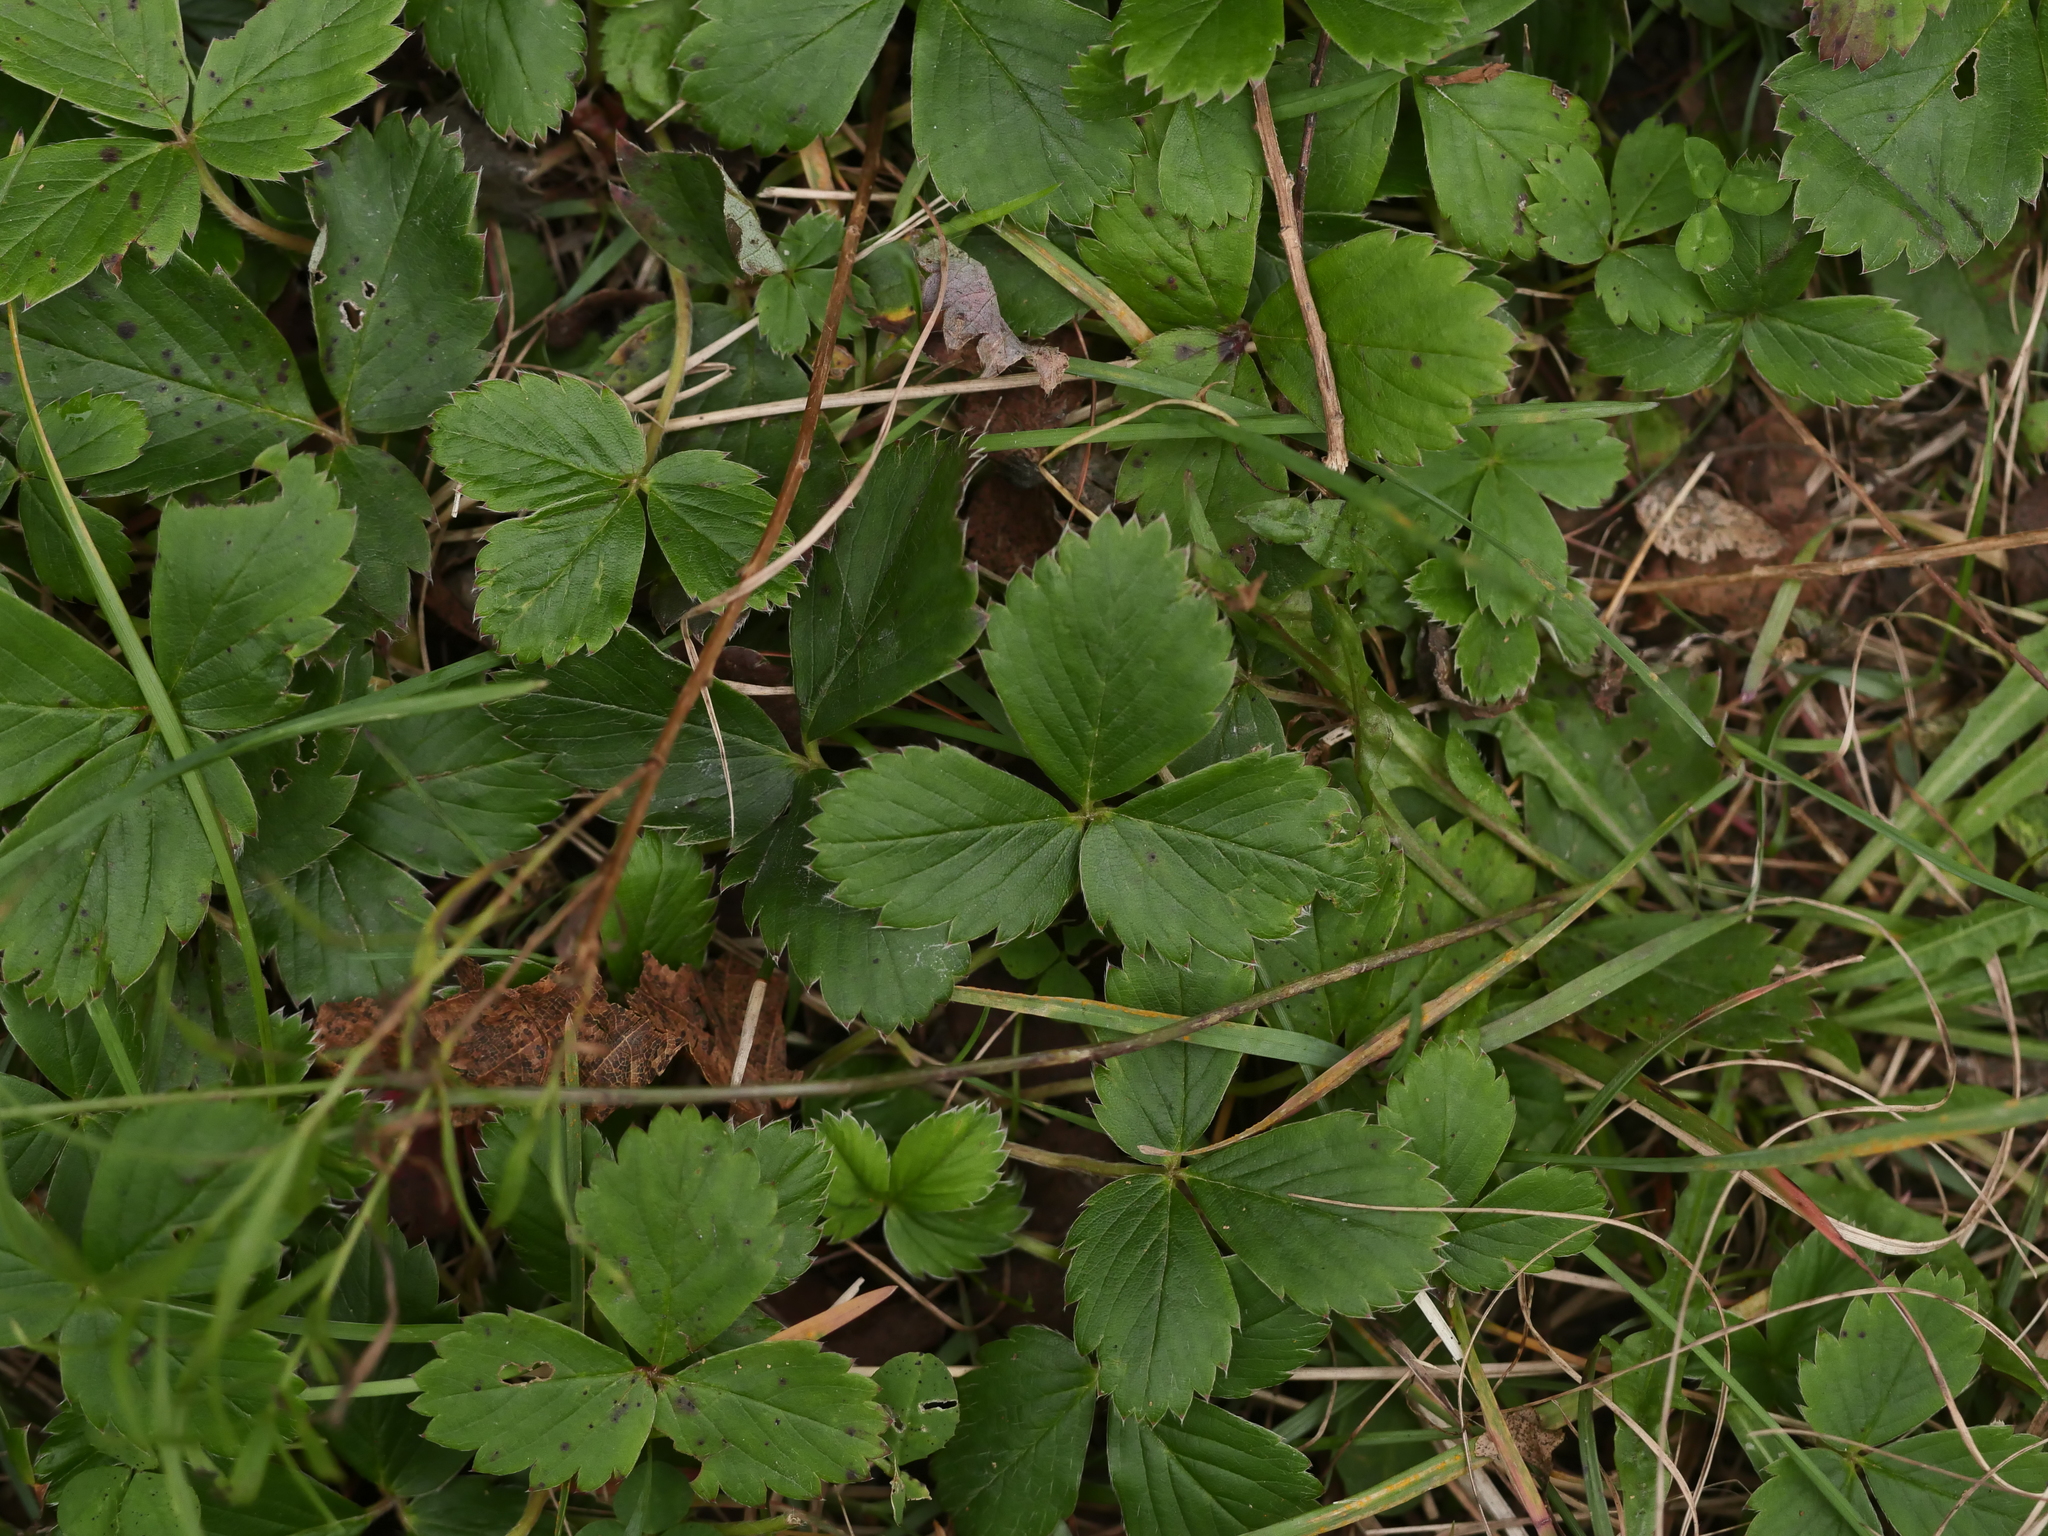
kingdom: Plantae
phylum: Tracheophyta
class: Magnoliopsida
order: Rosales
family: Rosaceae
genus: Fragaria
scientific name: Fragaria virginiana
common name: Thickleaved wild strawberry
